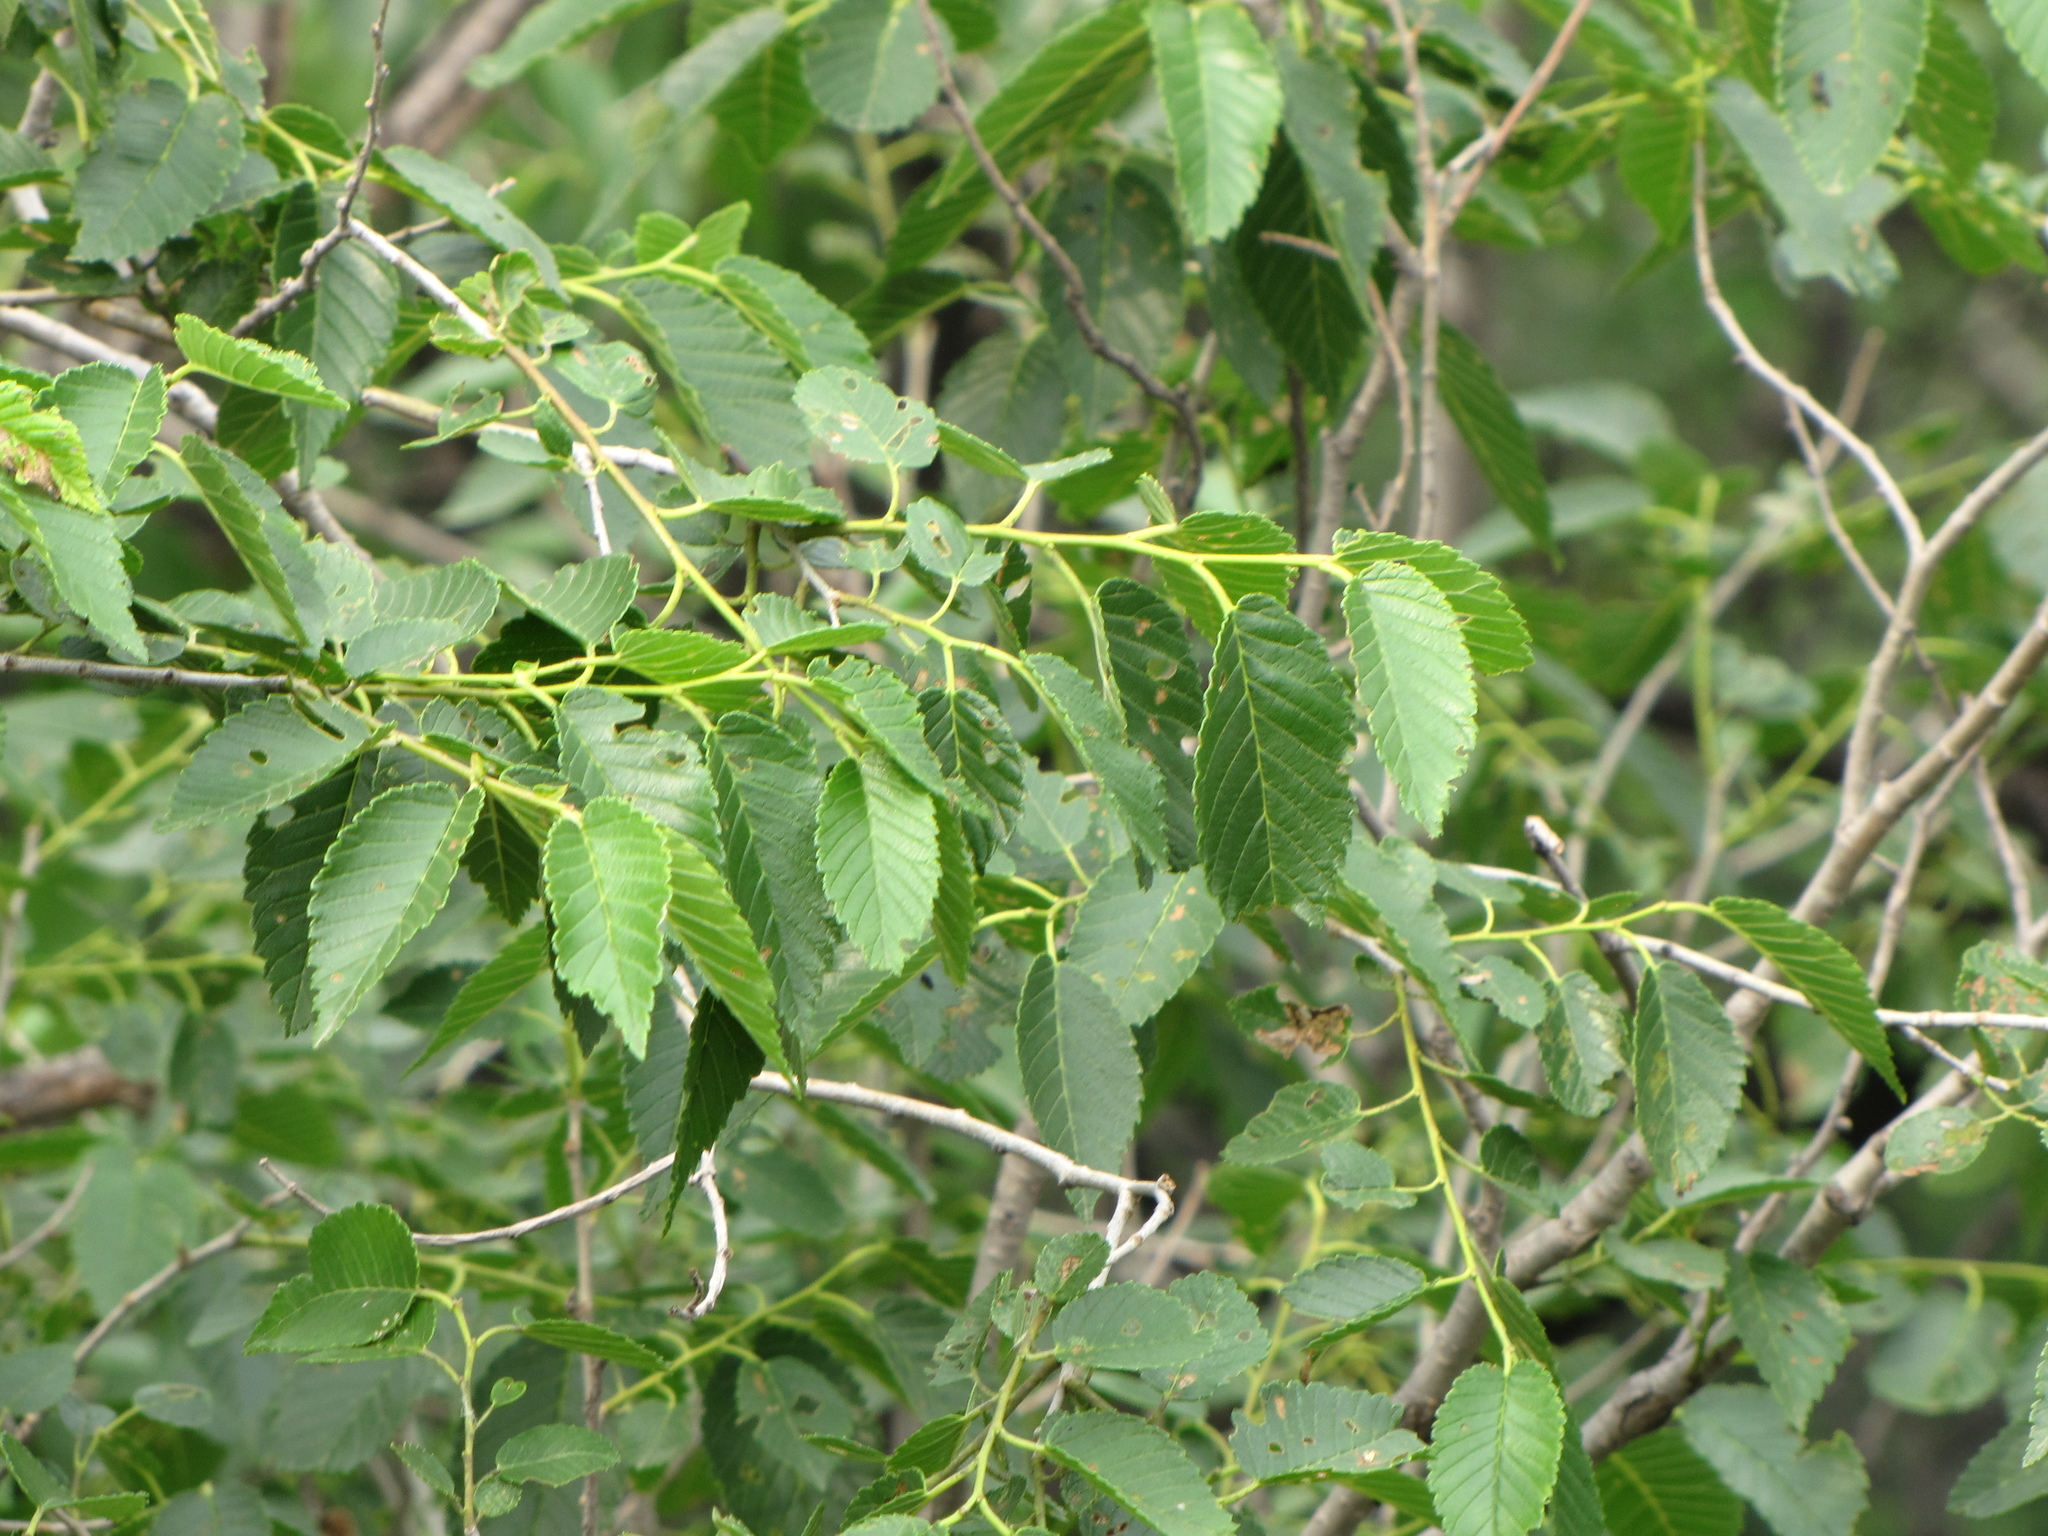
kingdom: Plantae
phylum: Tracheophyta
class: Magnoliopsida
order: Rosales
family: Ulmaceae
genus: Ulmus
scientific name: Ulmus pumila
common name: Siberian elm
